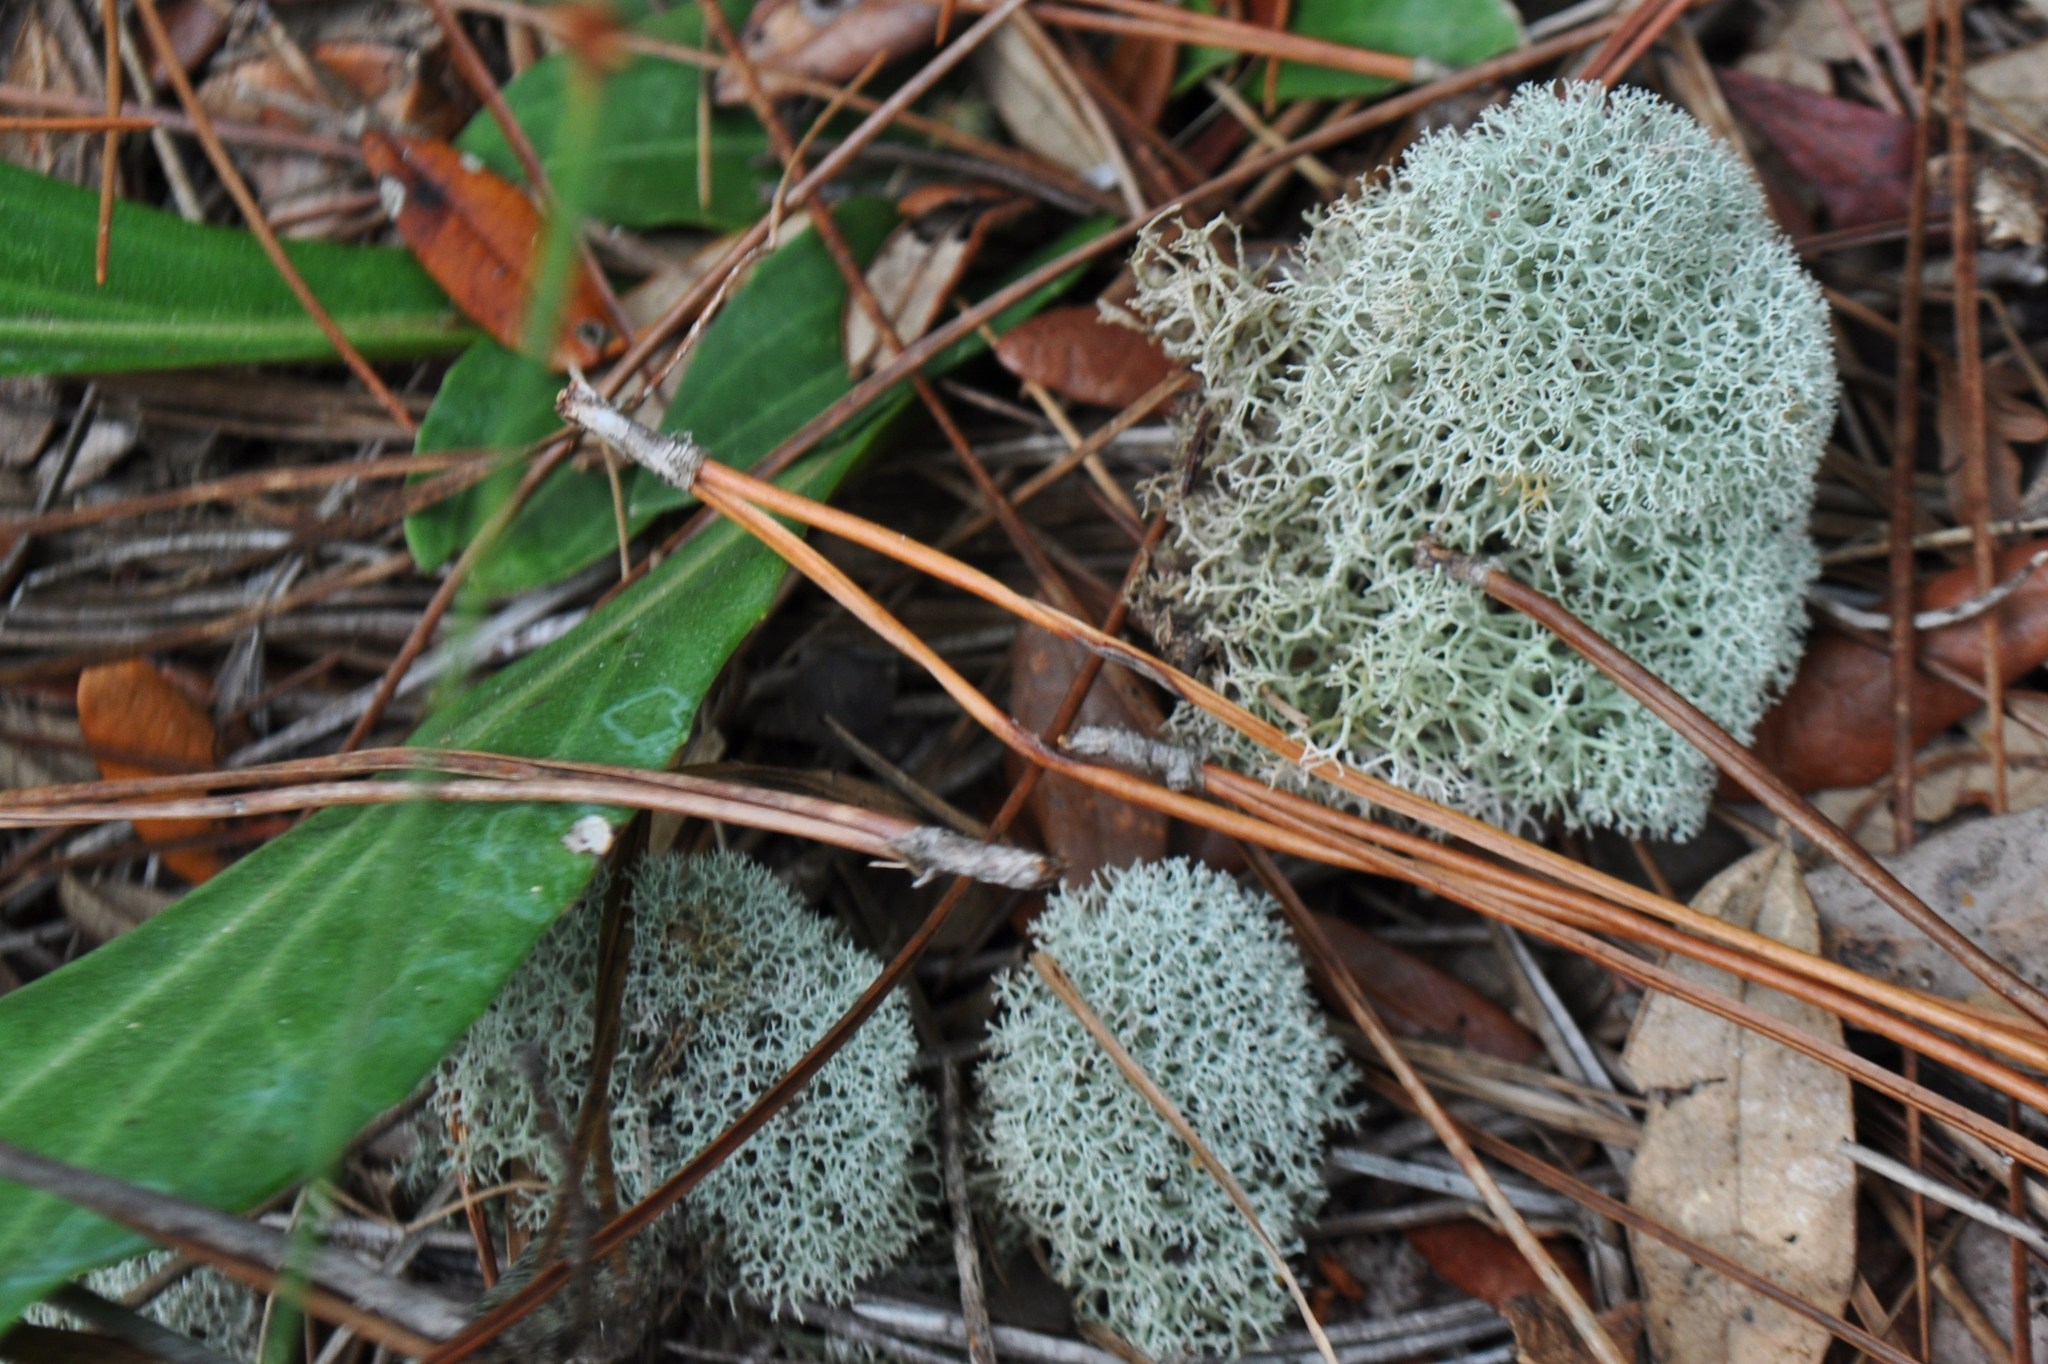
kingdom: Fungi
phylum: Ascomycota
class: Lecanoromycetes
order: Lecanorales
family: Cladoniaceae
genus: Cladonia
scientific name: Cladonia evansii
